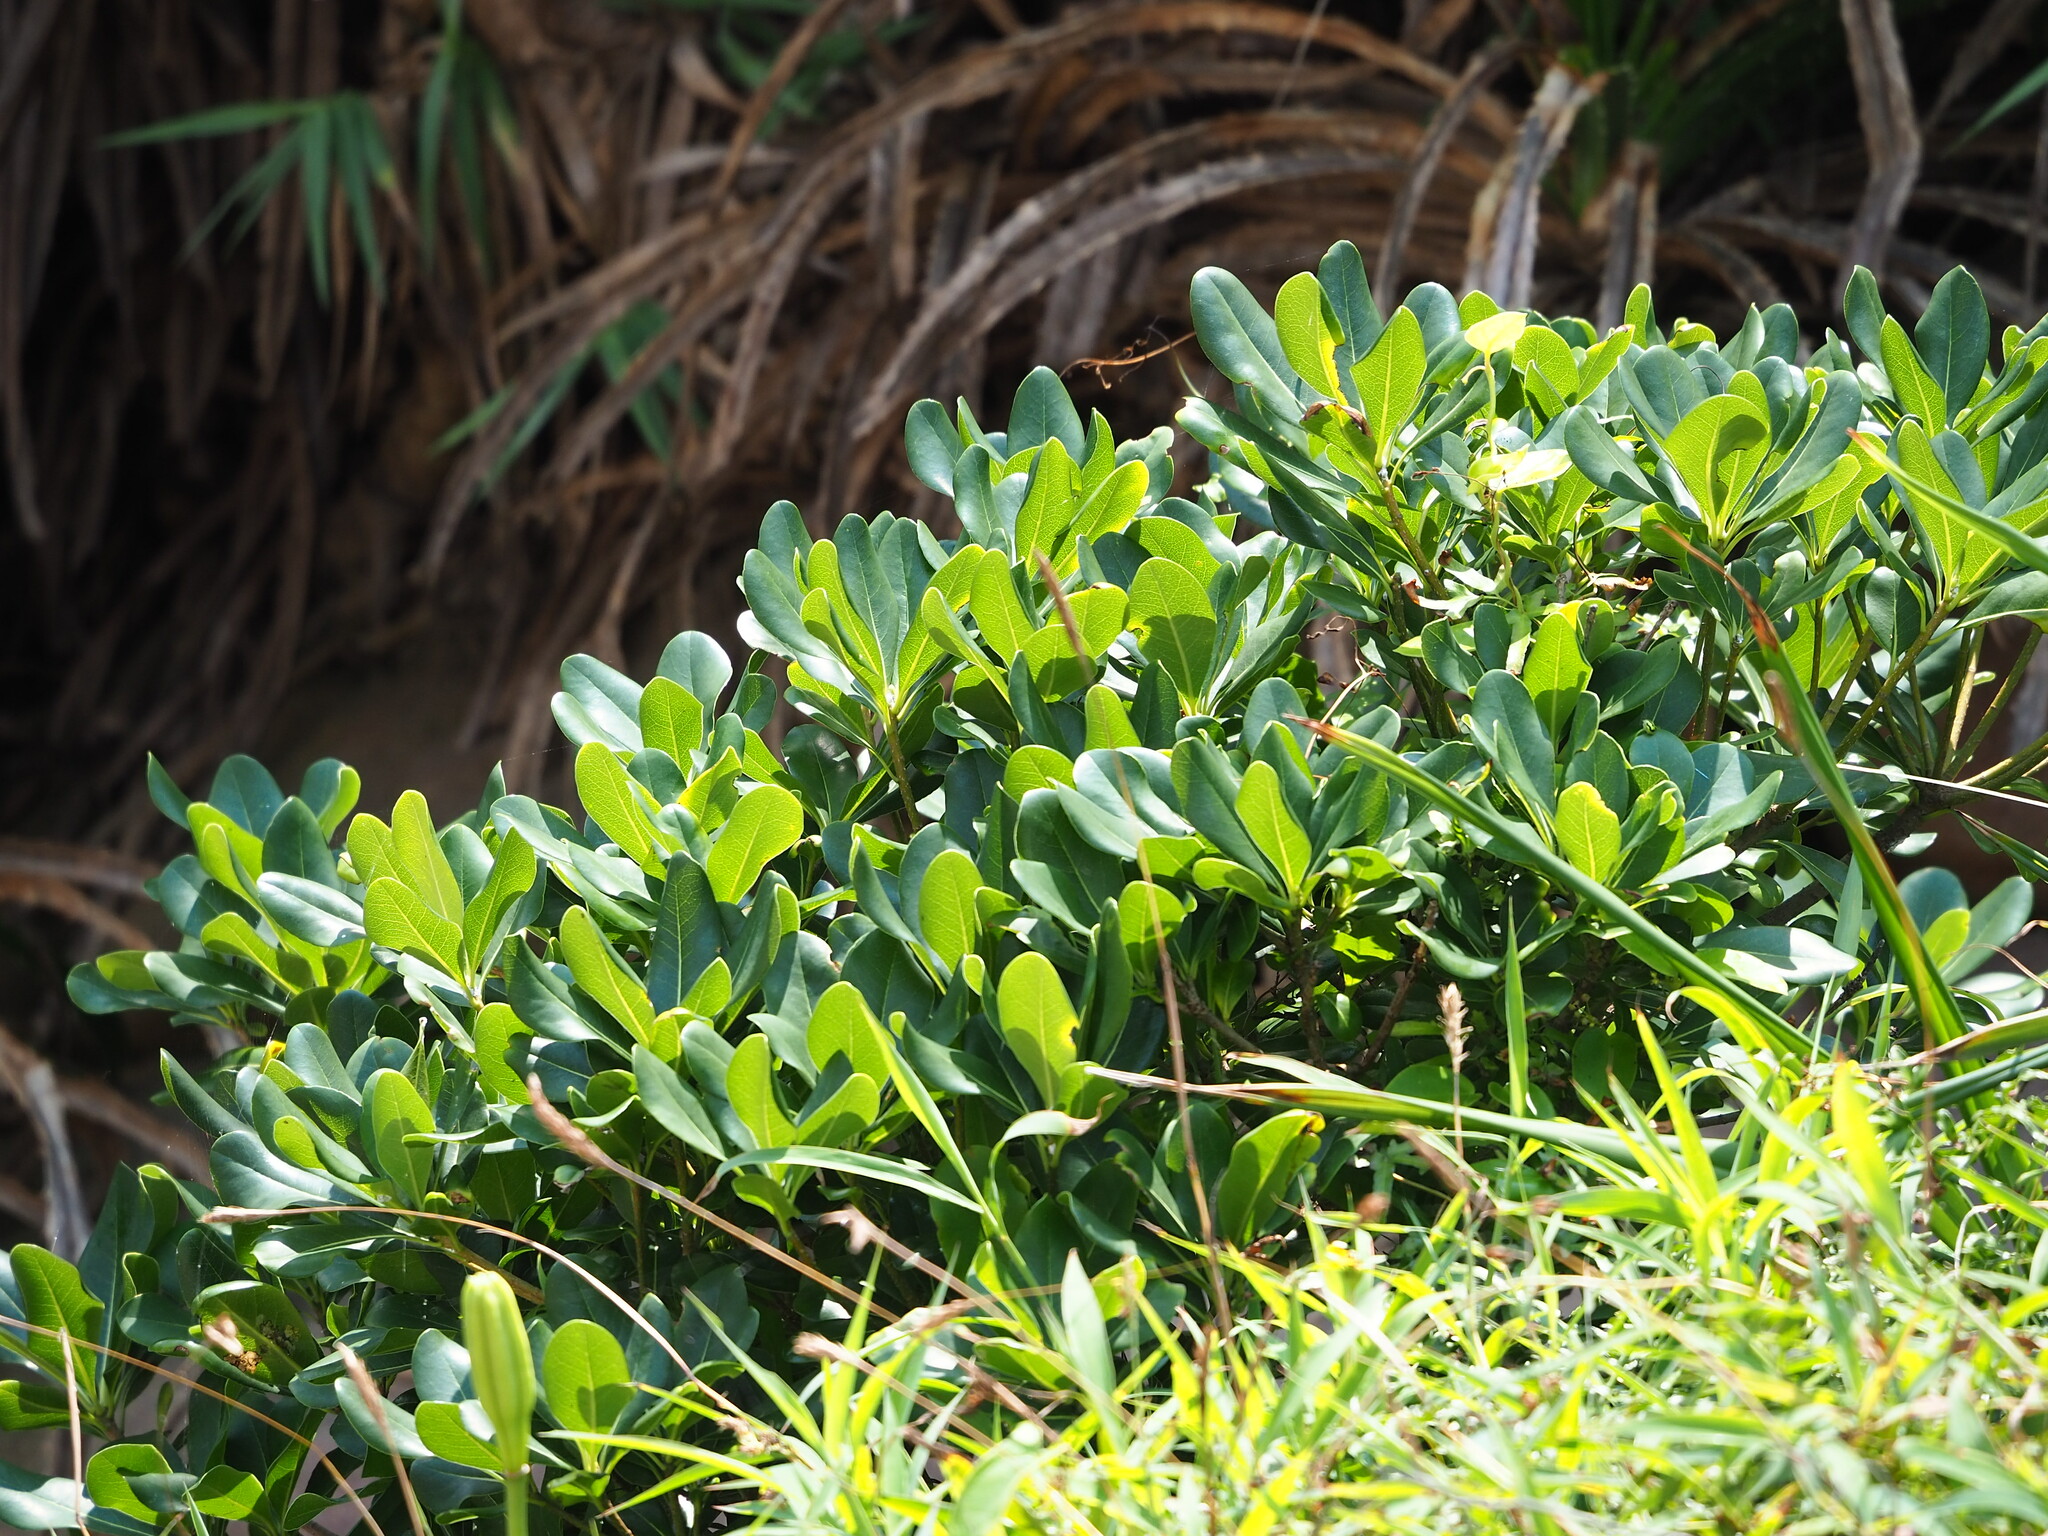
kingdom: Plantae
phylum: Tracheophyta
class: Magnoliopsida
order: Apiales
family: Pittosporaceae
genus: Pittosporum
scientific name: Pittosporum tobira
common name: Japanese cheesewood
